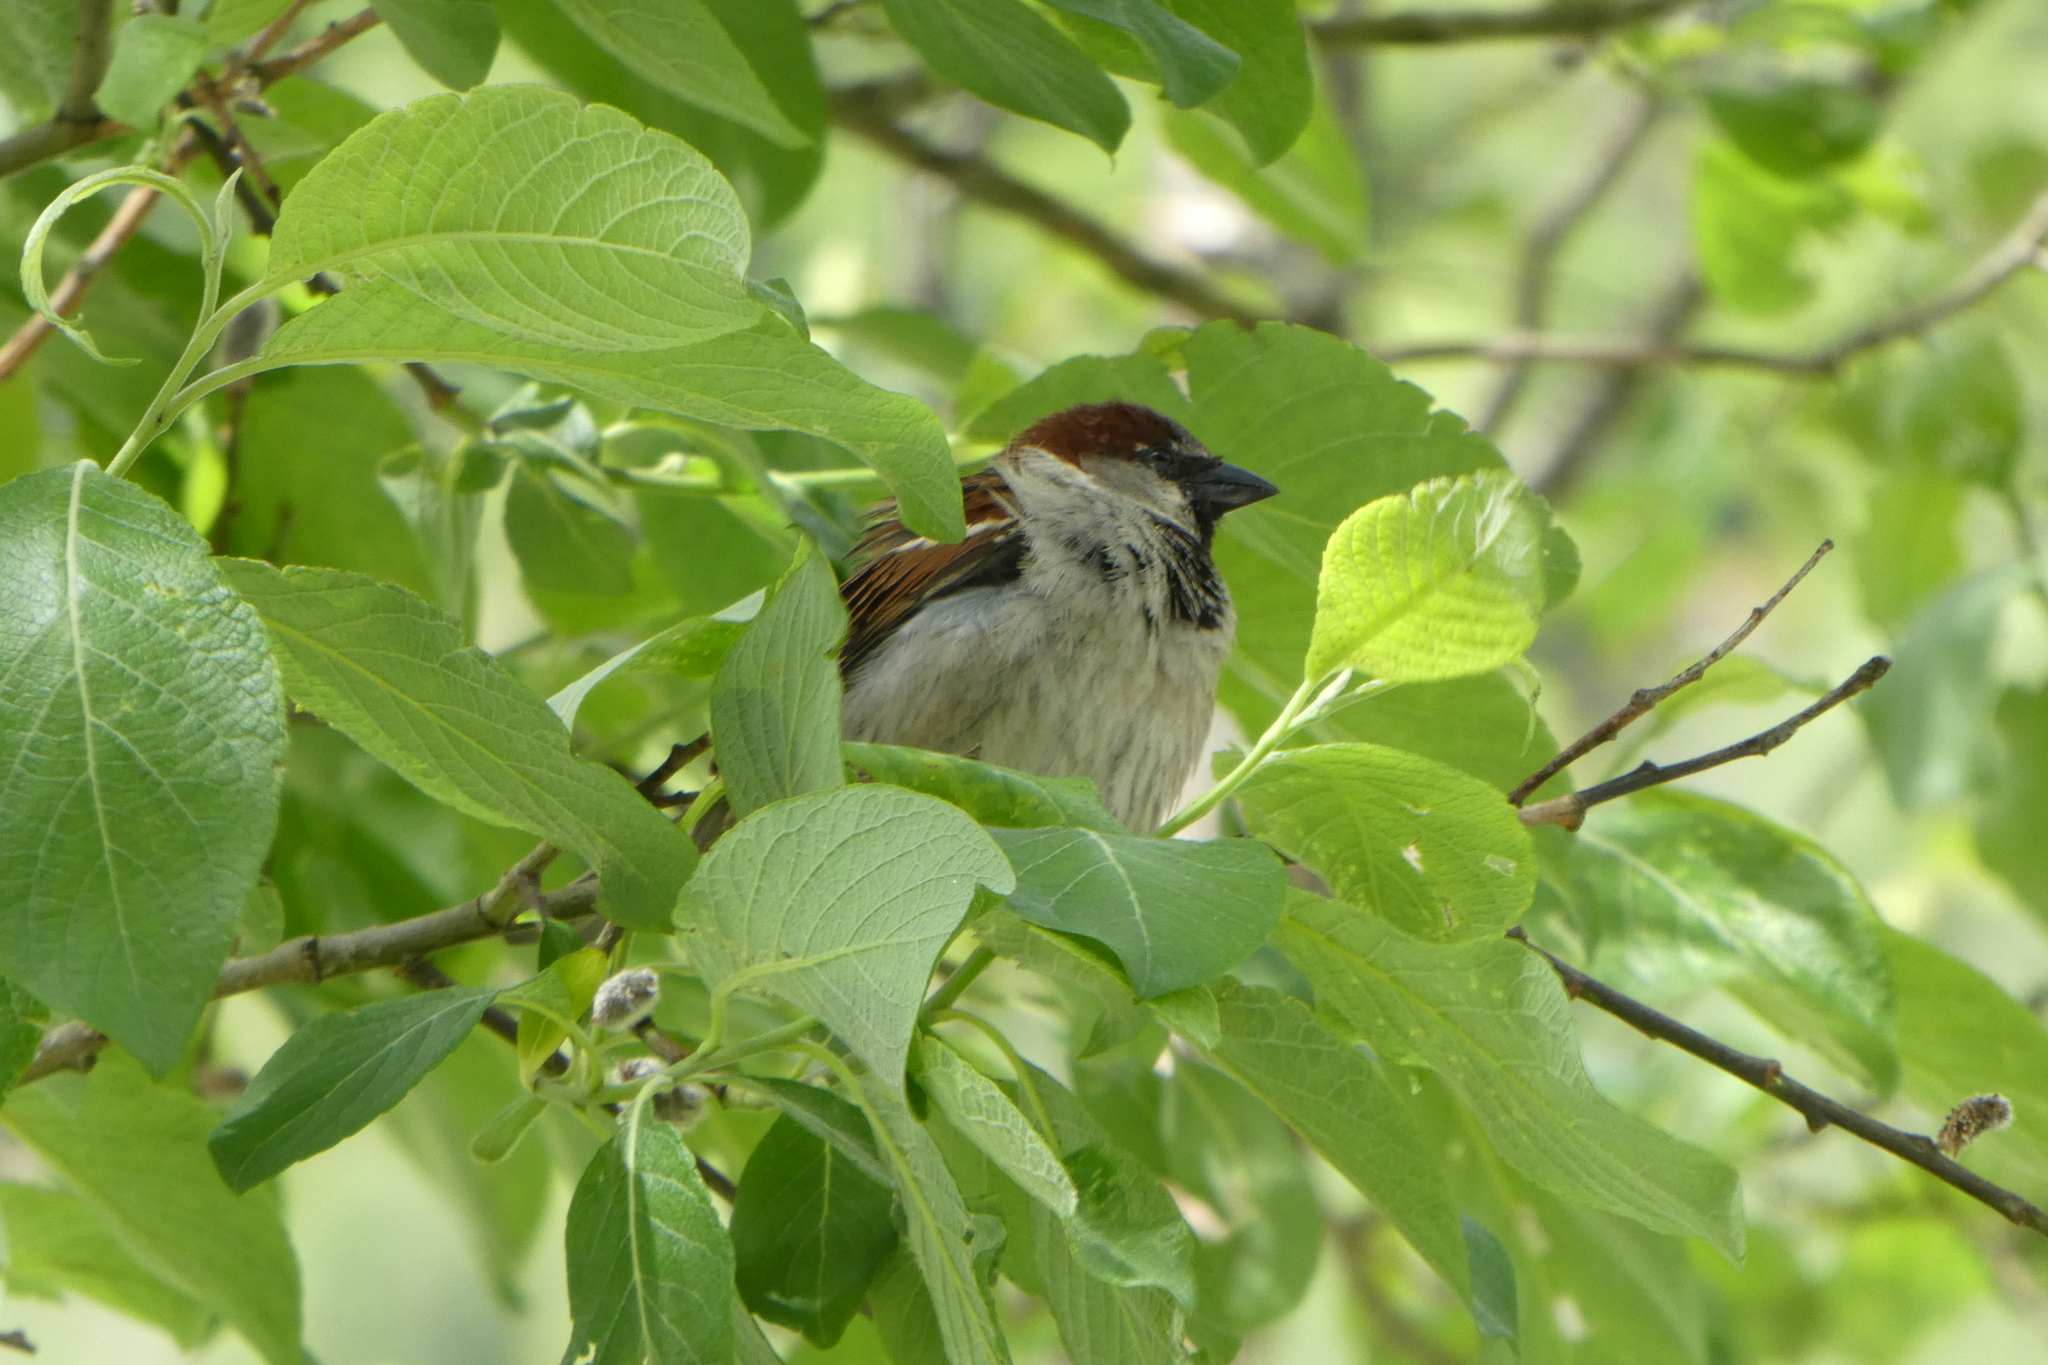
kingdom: Animalia
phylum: Chordata
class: Aves
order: Passeriformes
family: Passeridae
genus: Passer
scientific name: Passer domesticus
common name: House sparrow
